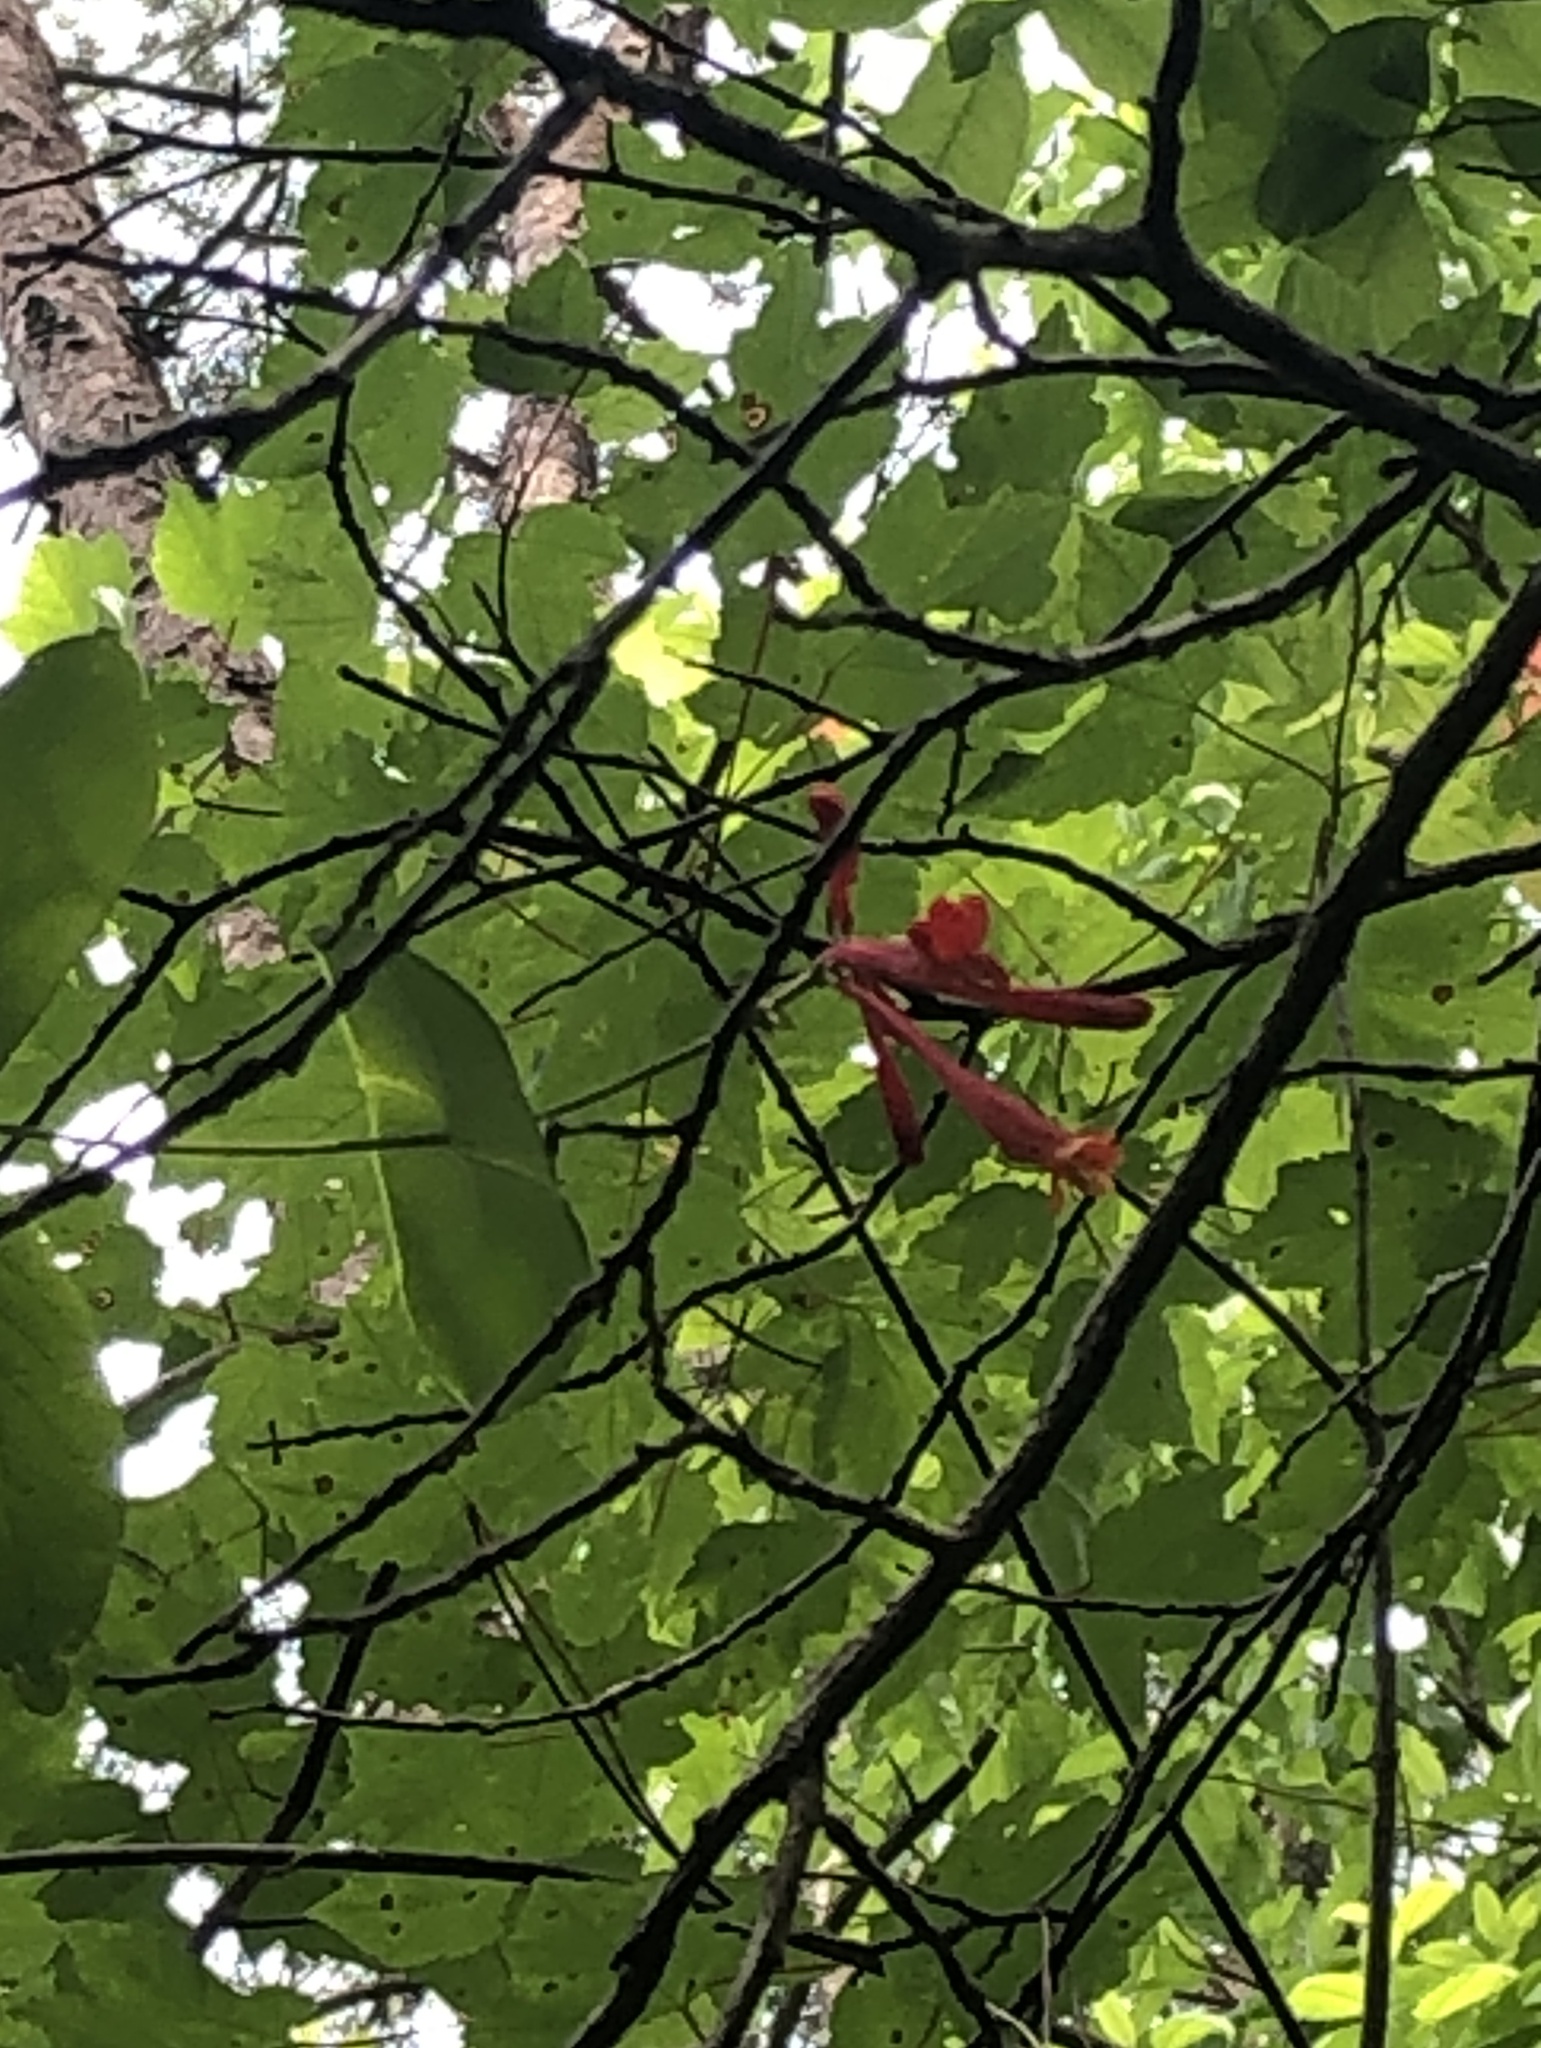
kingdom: Plantae
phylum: Tracheophyta
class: Magnoliopsida
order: Dipsacales
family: Caprifoliaceae
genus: Lonicera
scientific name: Lonicera sempervirens
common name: Coral honeysuckle
